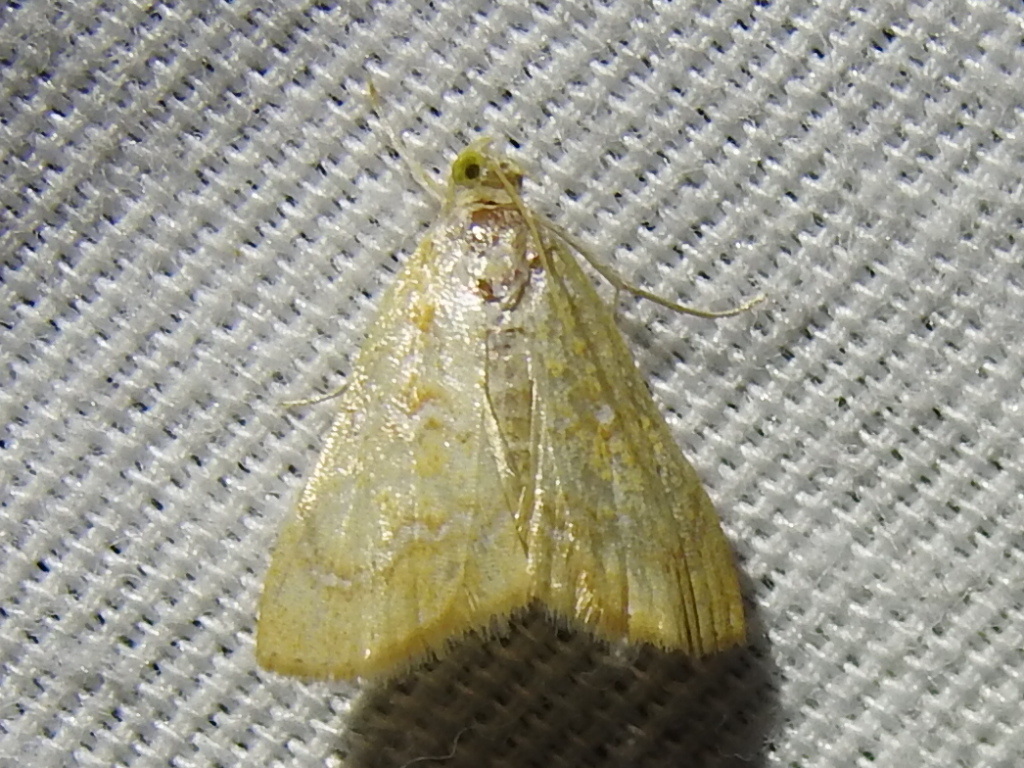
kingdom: Animalia
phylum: Arthropoda
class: Insecta
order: Lepidoptera
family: Crambidae
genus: Glaphyria
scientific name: Glaphyria sesquistrialis
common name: White-roped glaphyria
